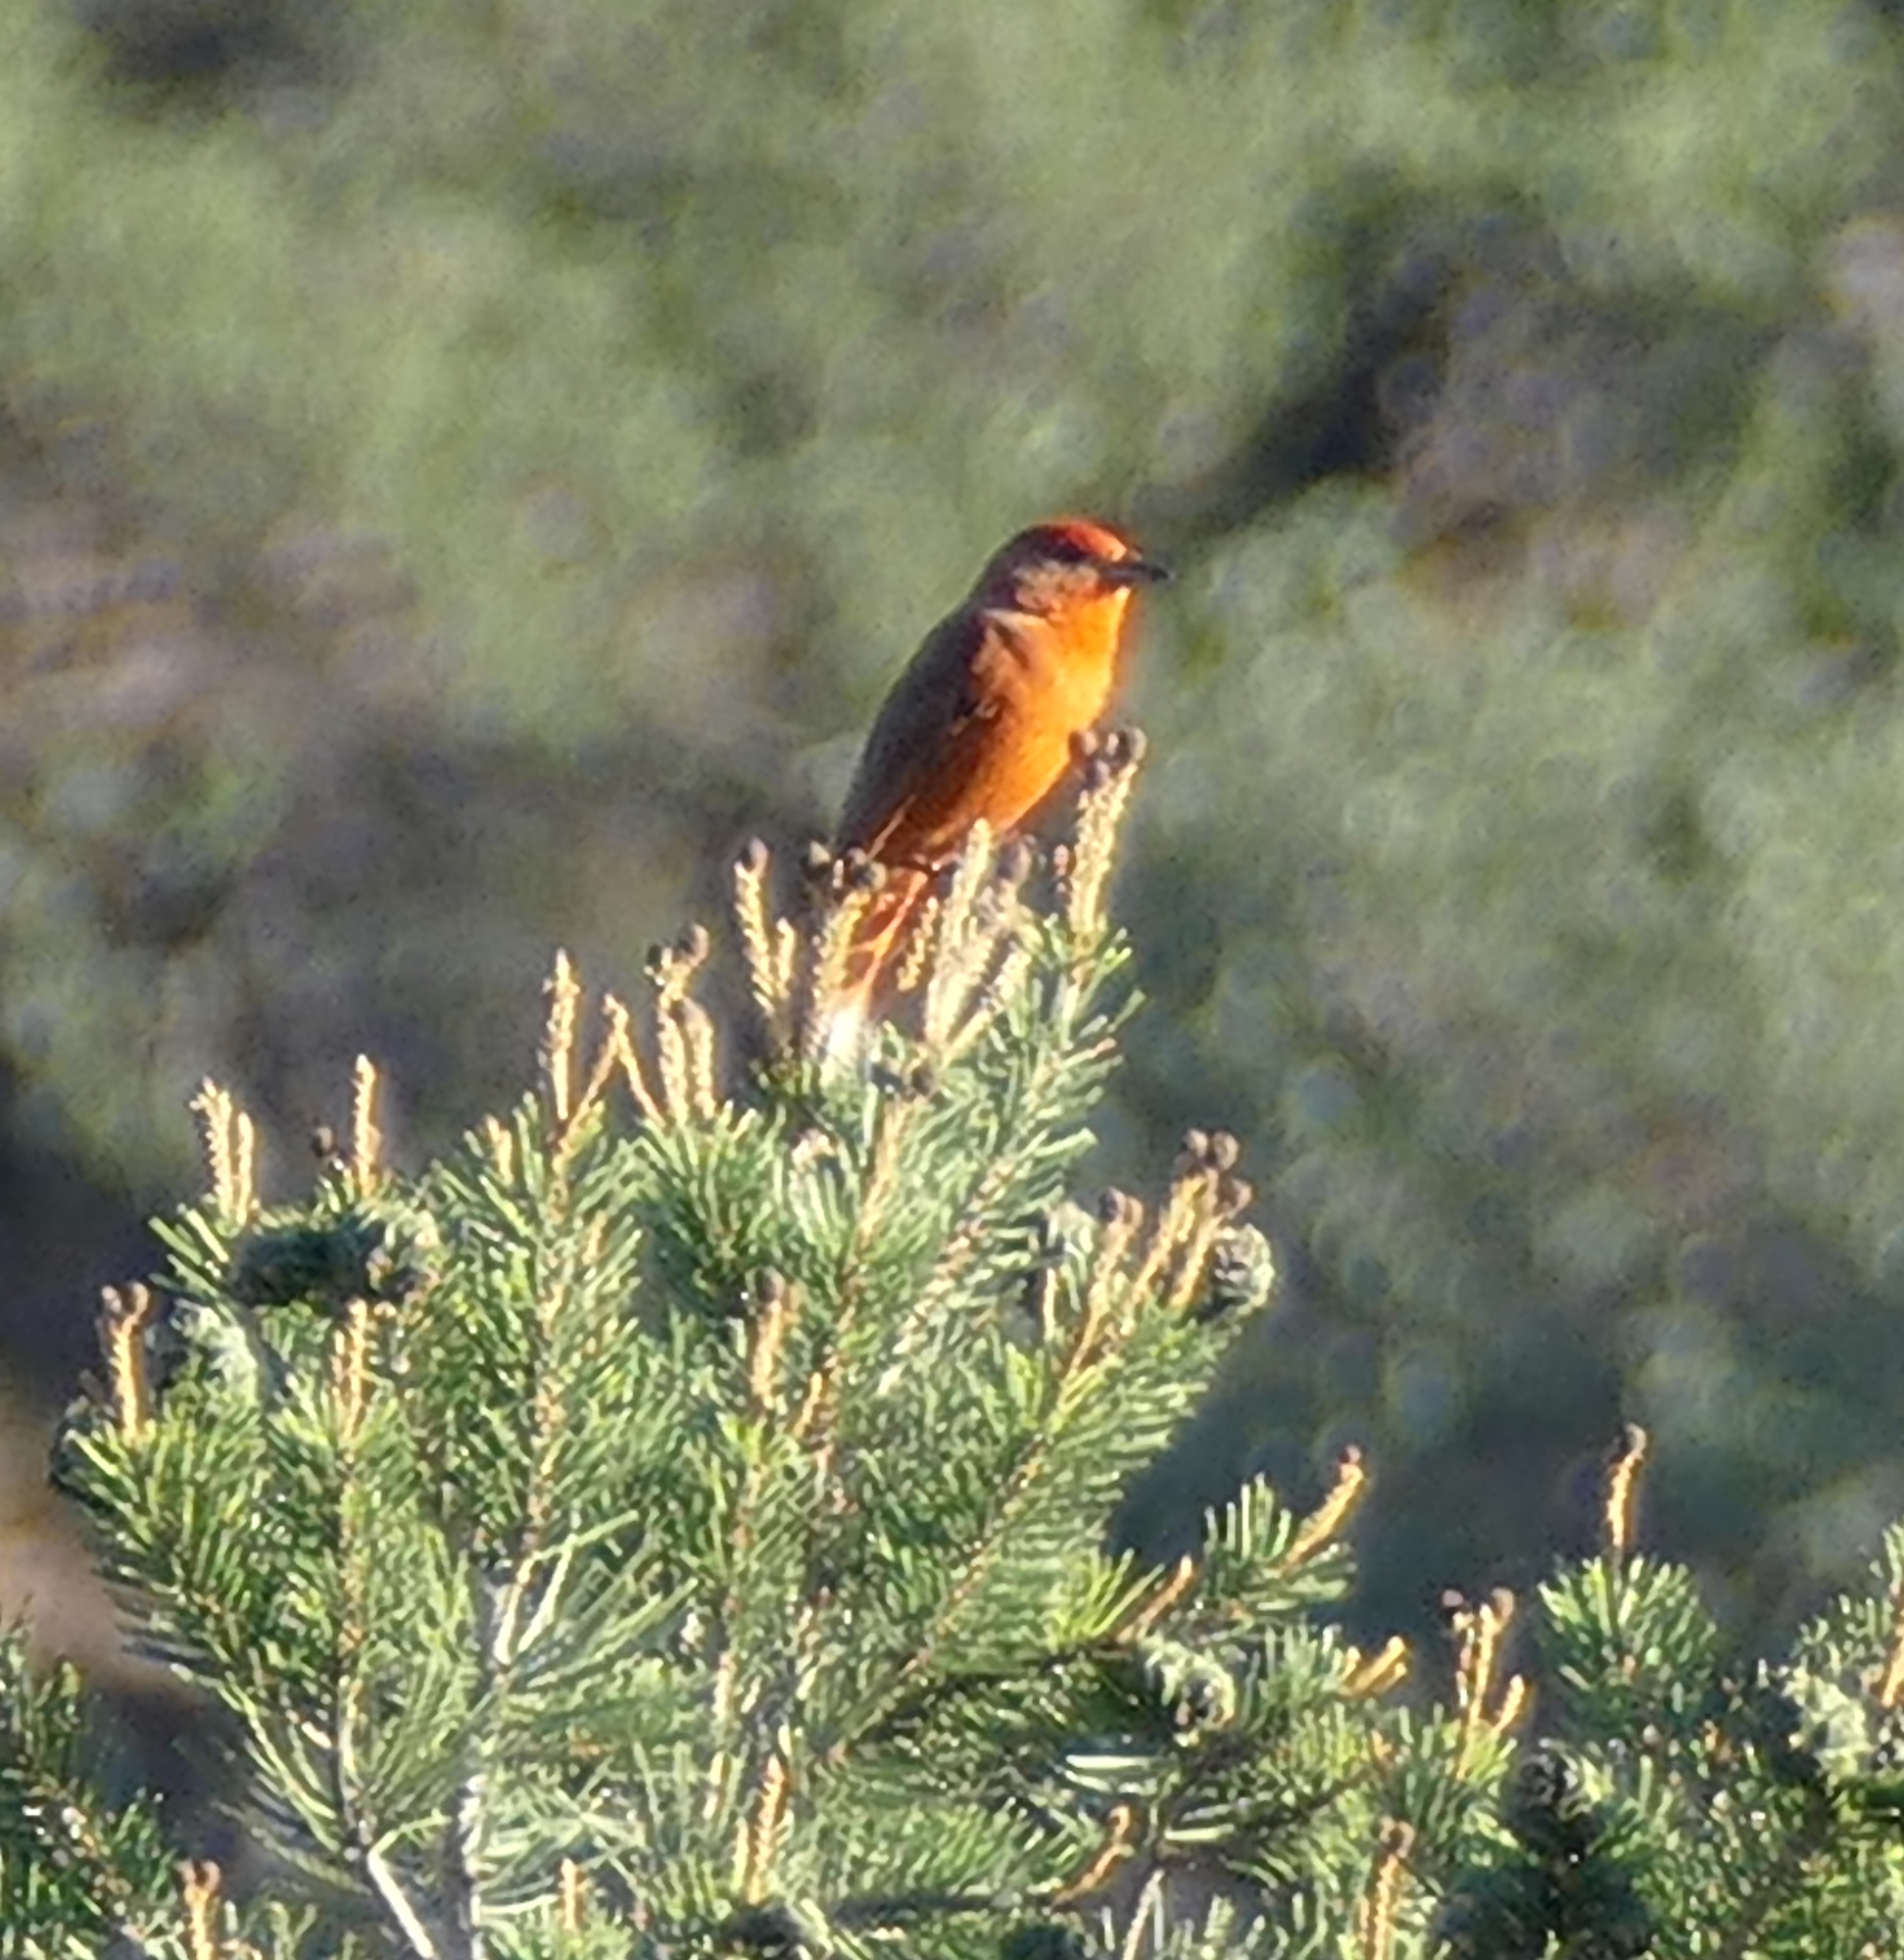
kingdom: Animalia
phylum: Chordata
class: Aves
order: Passeriformes
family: Cardinalidae
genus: Piranga
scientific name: Piranga flava
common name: Red tanager
